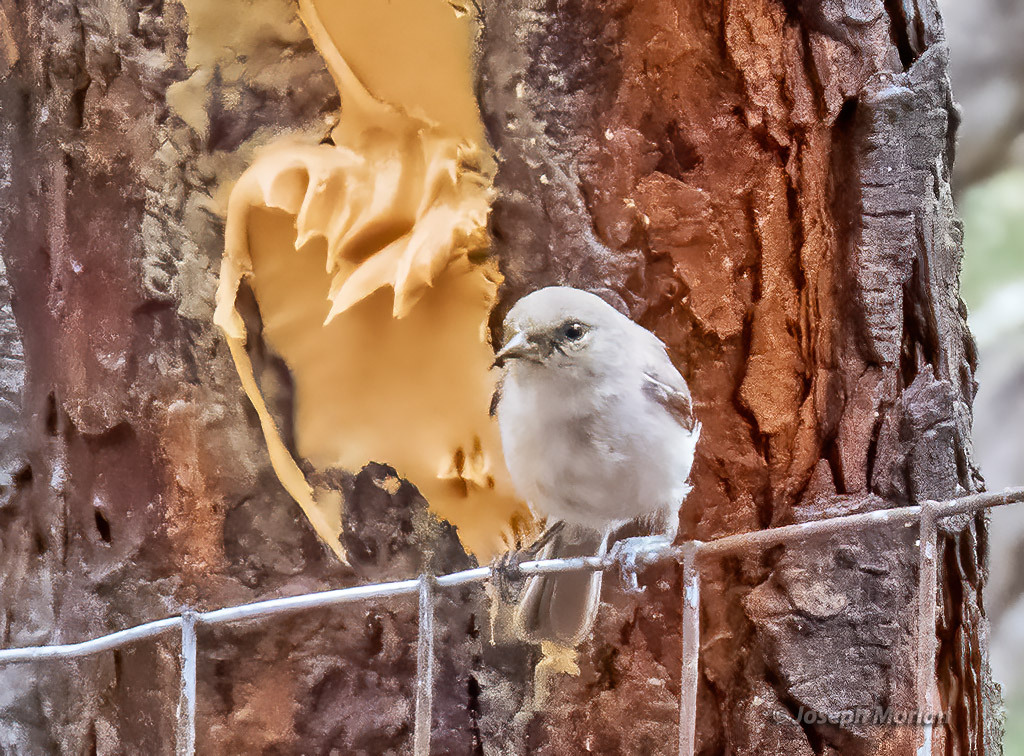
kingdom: Animalia
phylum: Chordata
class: Aves
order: Passeriformes
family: Remizidae
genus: Auriparus
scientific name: Auriparus flaviceps
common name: Verdin
